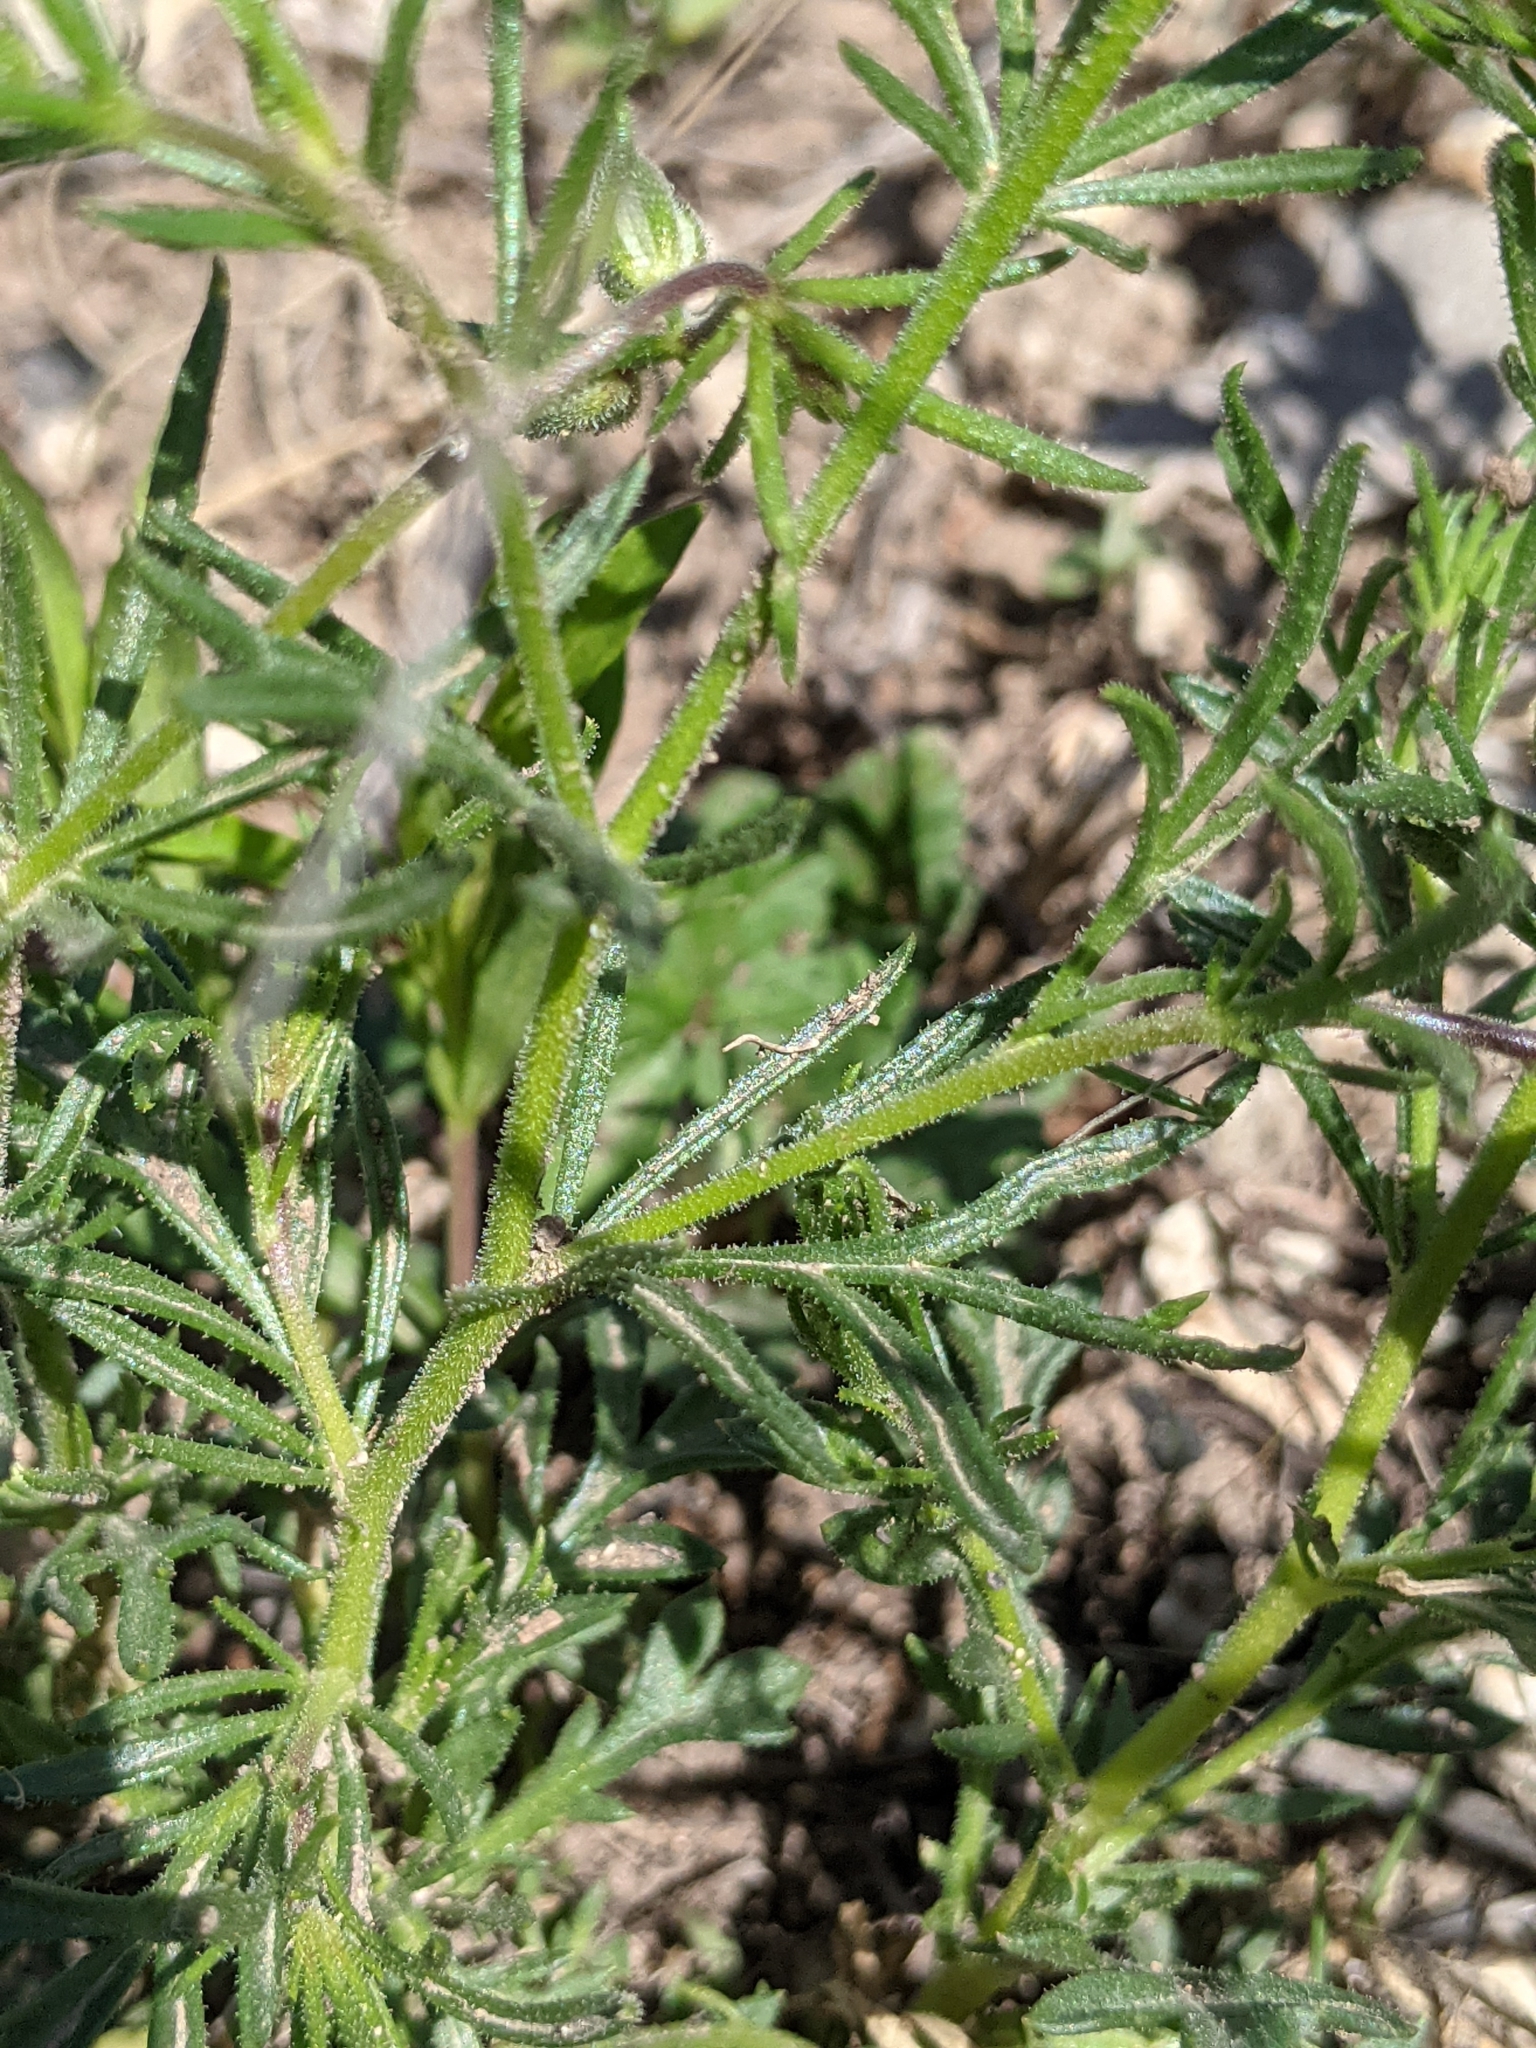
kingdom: Plantae
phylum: Tracheophyta
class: Magnoliopsida
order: Ericales
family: Polemoniaceae
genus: Giliastrum
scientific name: Giliastrum rigidulum
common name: Bluebowls
